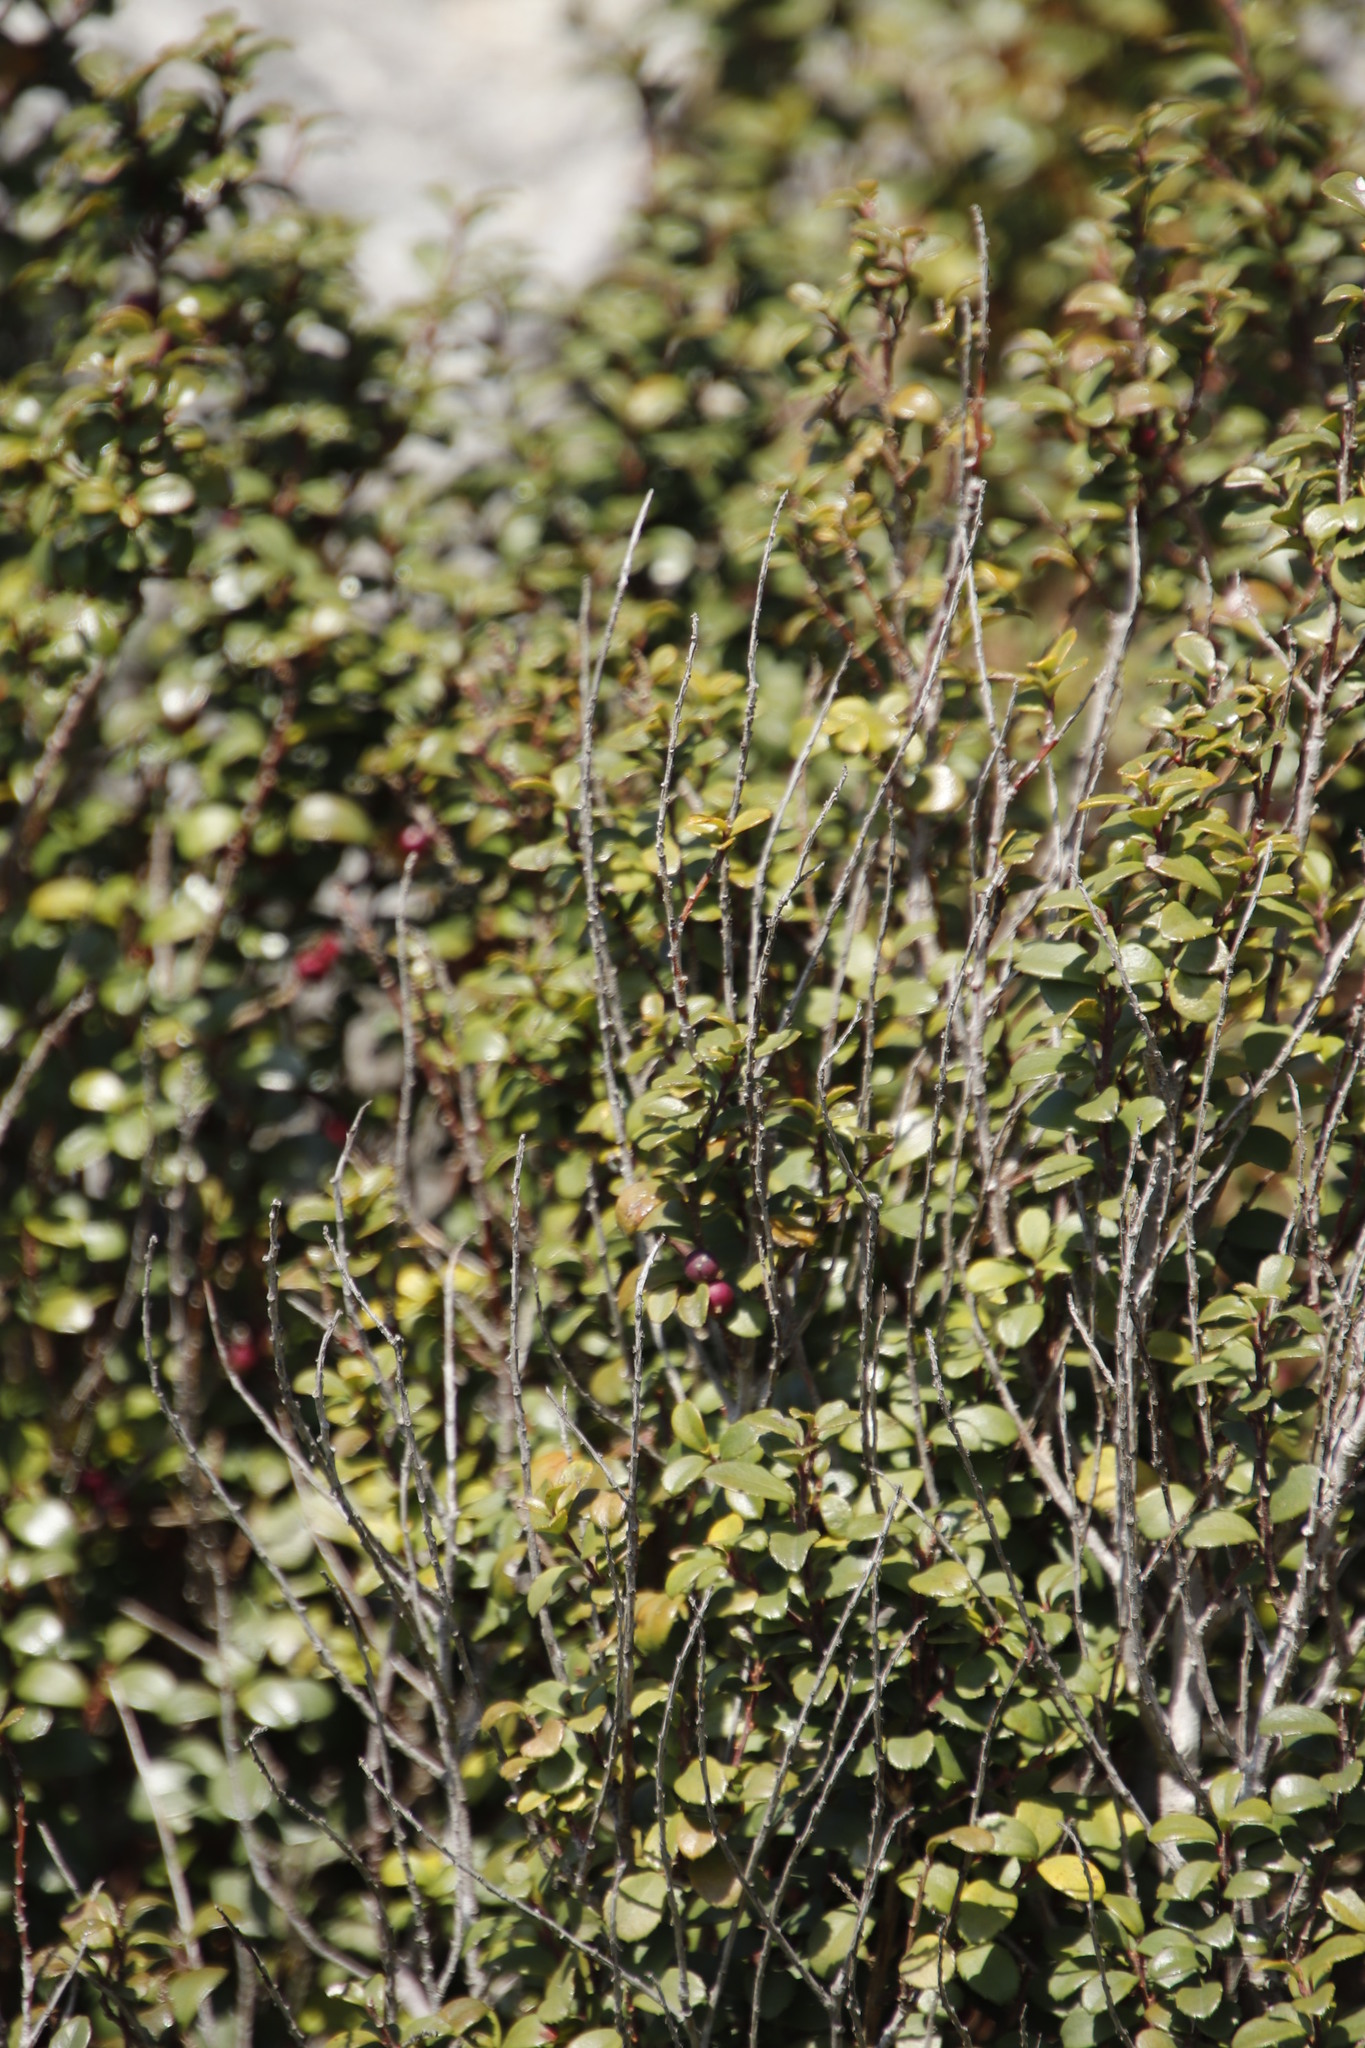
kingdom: Plantae
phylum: Tracheophyta
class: Magnoliopsida
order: Ericales
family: Primulaceae
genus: Myrsine
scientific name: Myrsine africana
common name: African-boxwood
